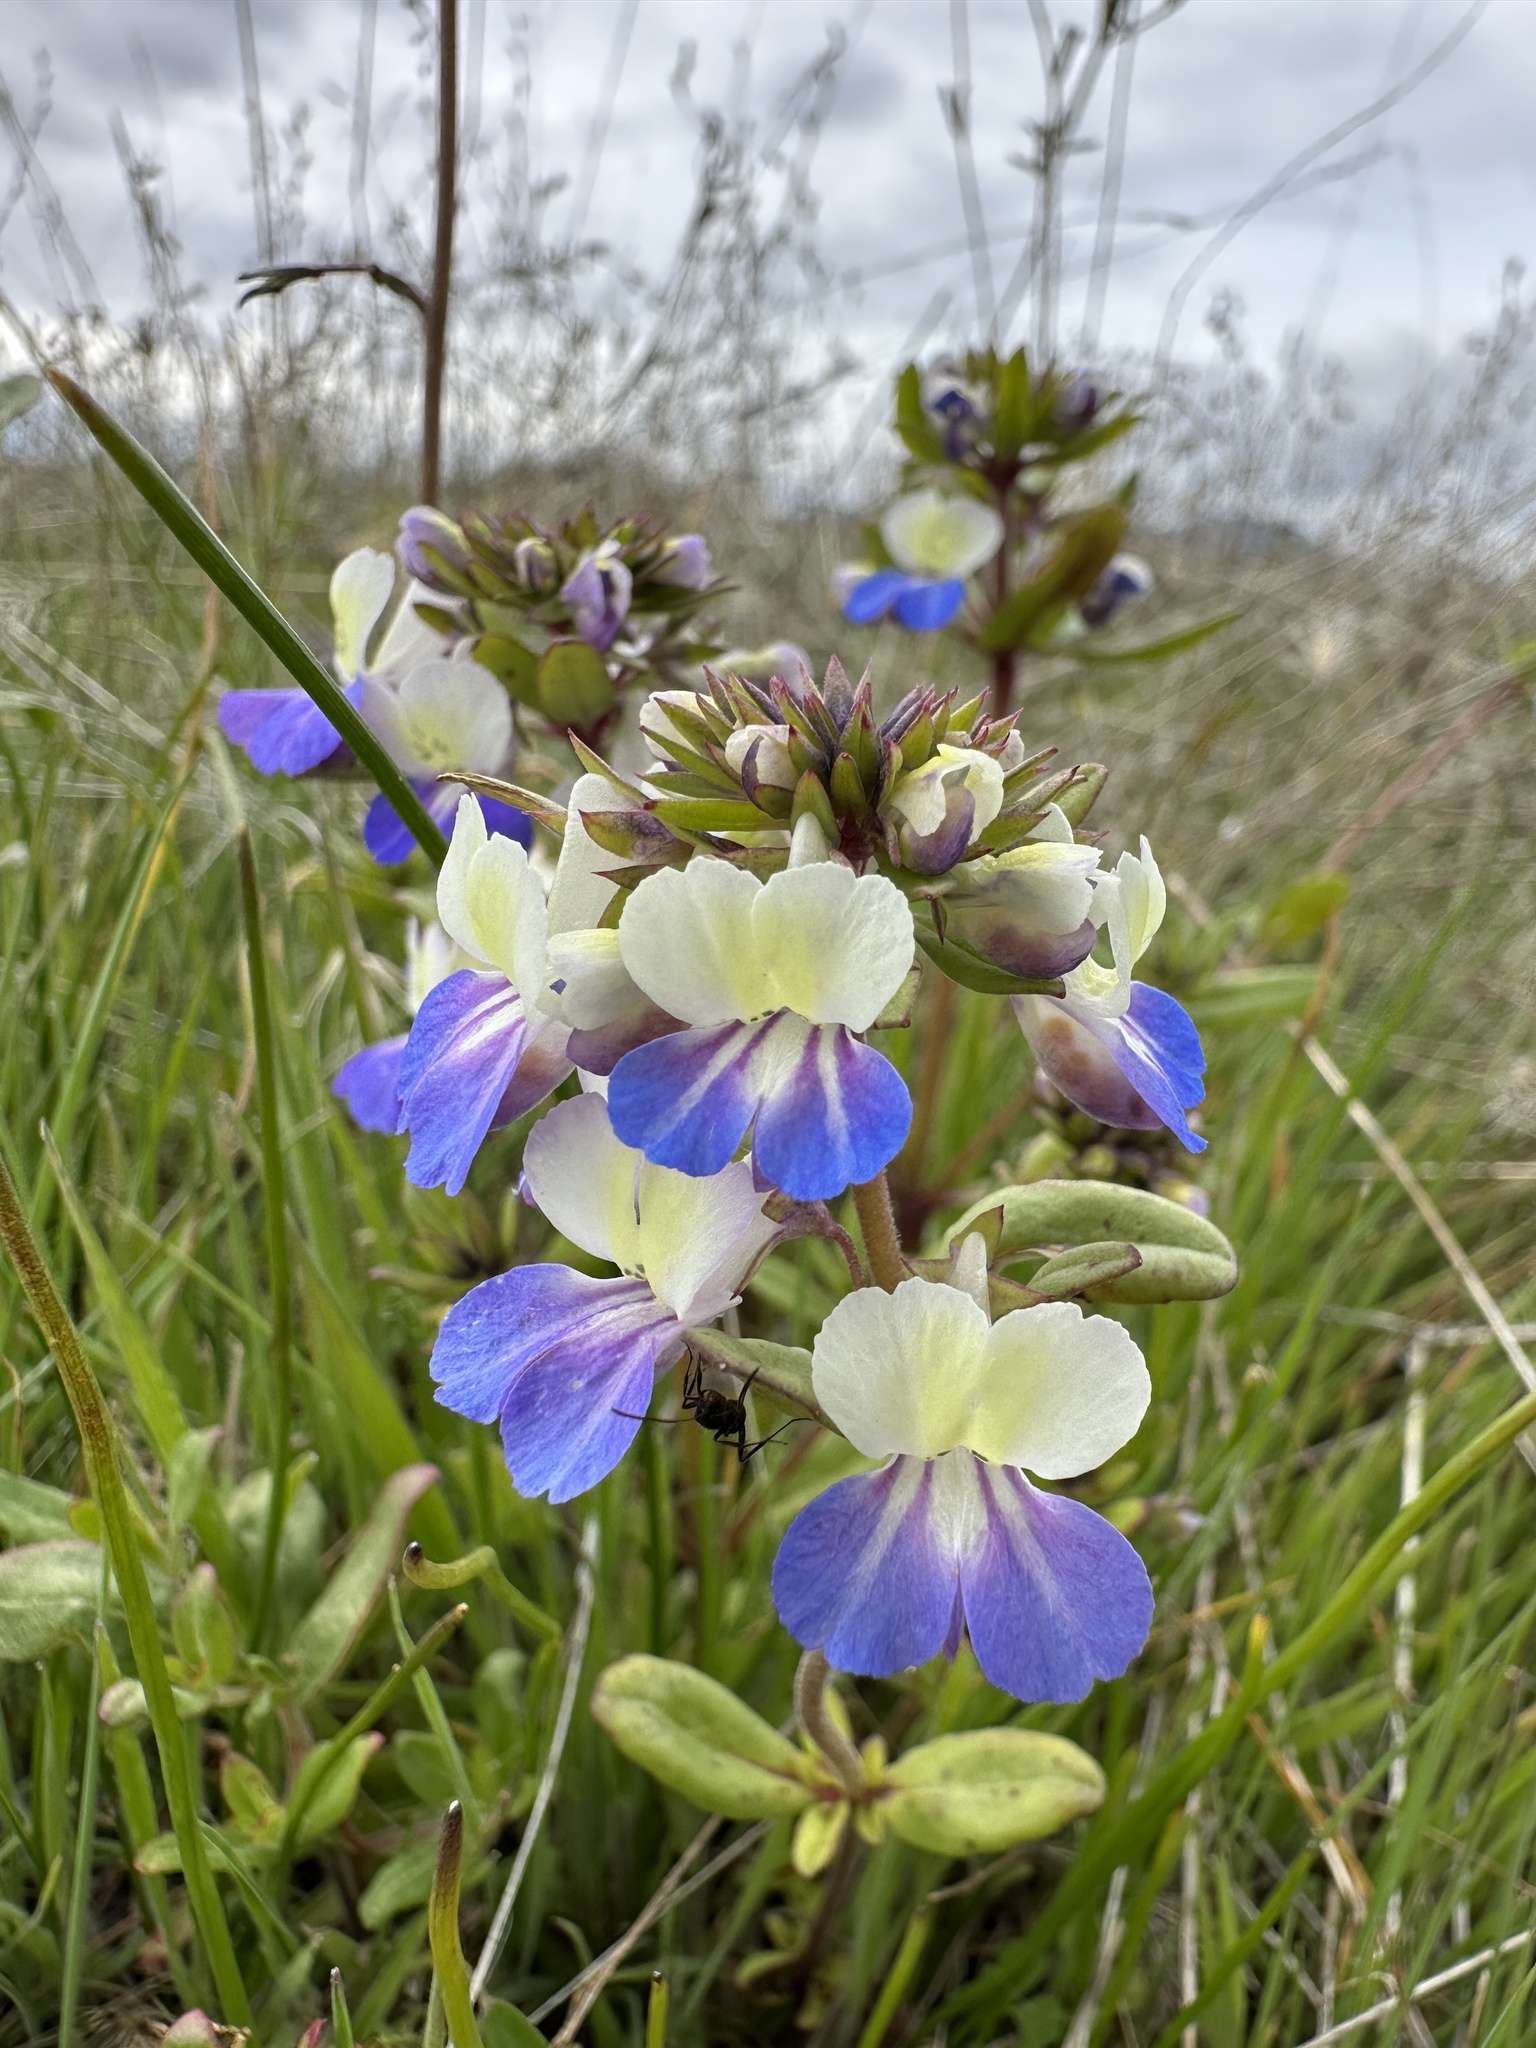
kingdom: Plantae
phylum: Tracheophyta
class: Magnoliopsida
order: Lamiales
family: Plantaginaceae
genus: Collinsia
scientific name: Collinsia grandiflora
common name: Large-flower blue-eyed-mary
